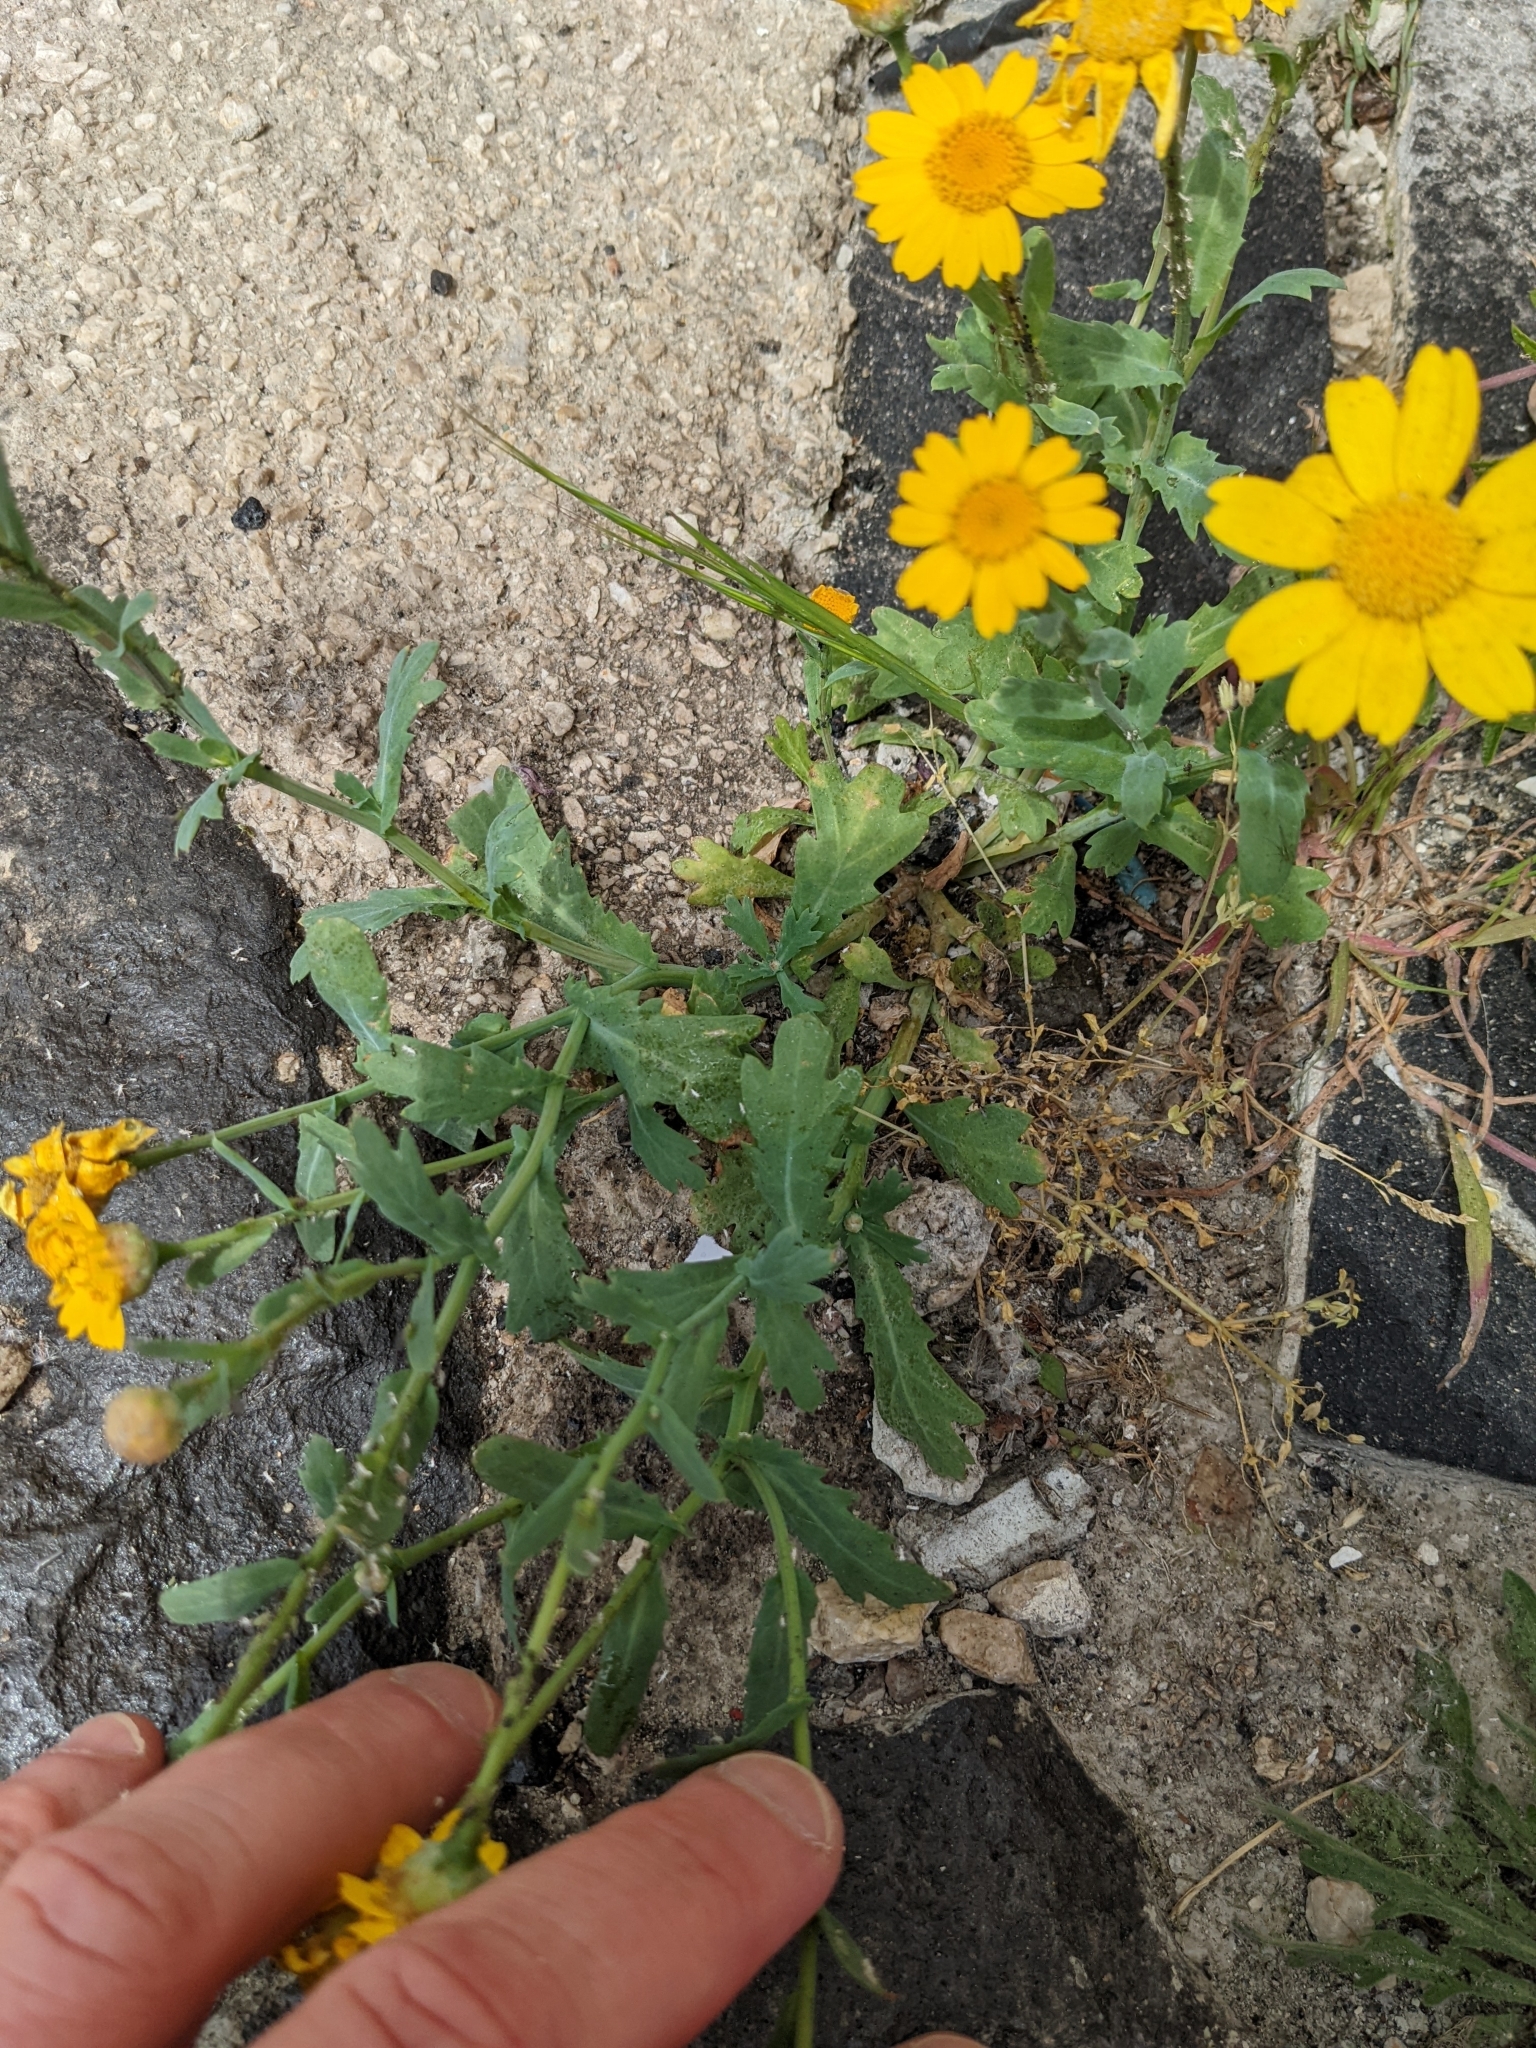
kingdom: Plantae
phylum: Tracheophyta
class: Magnoliopsida
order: Asterales
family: Asteraceae
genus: Glebionis
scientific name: Glebionis segetum
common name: Corndaisy
